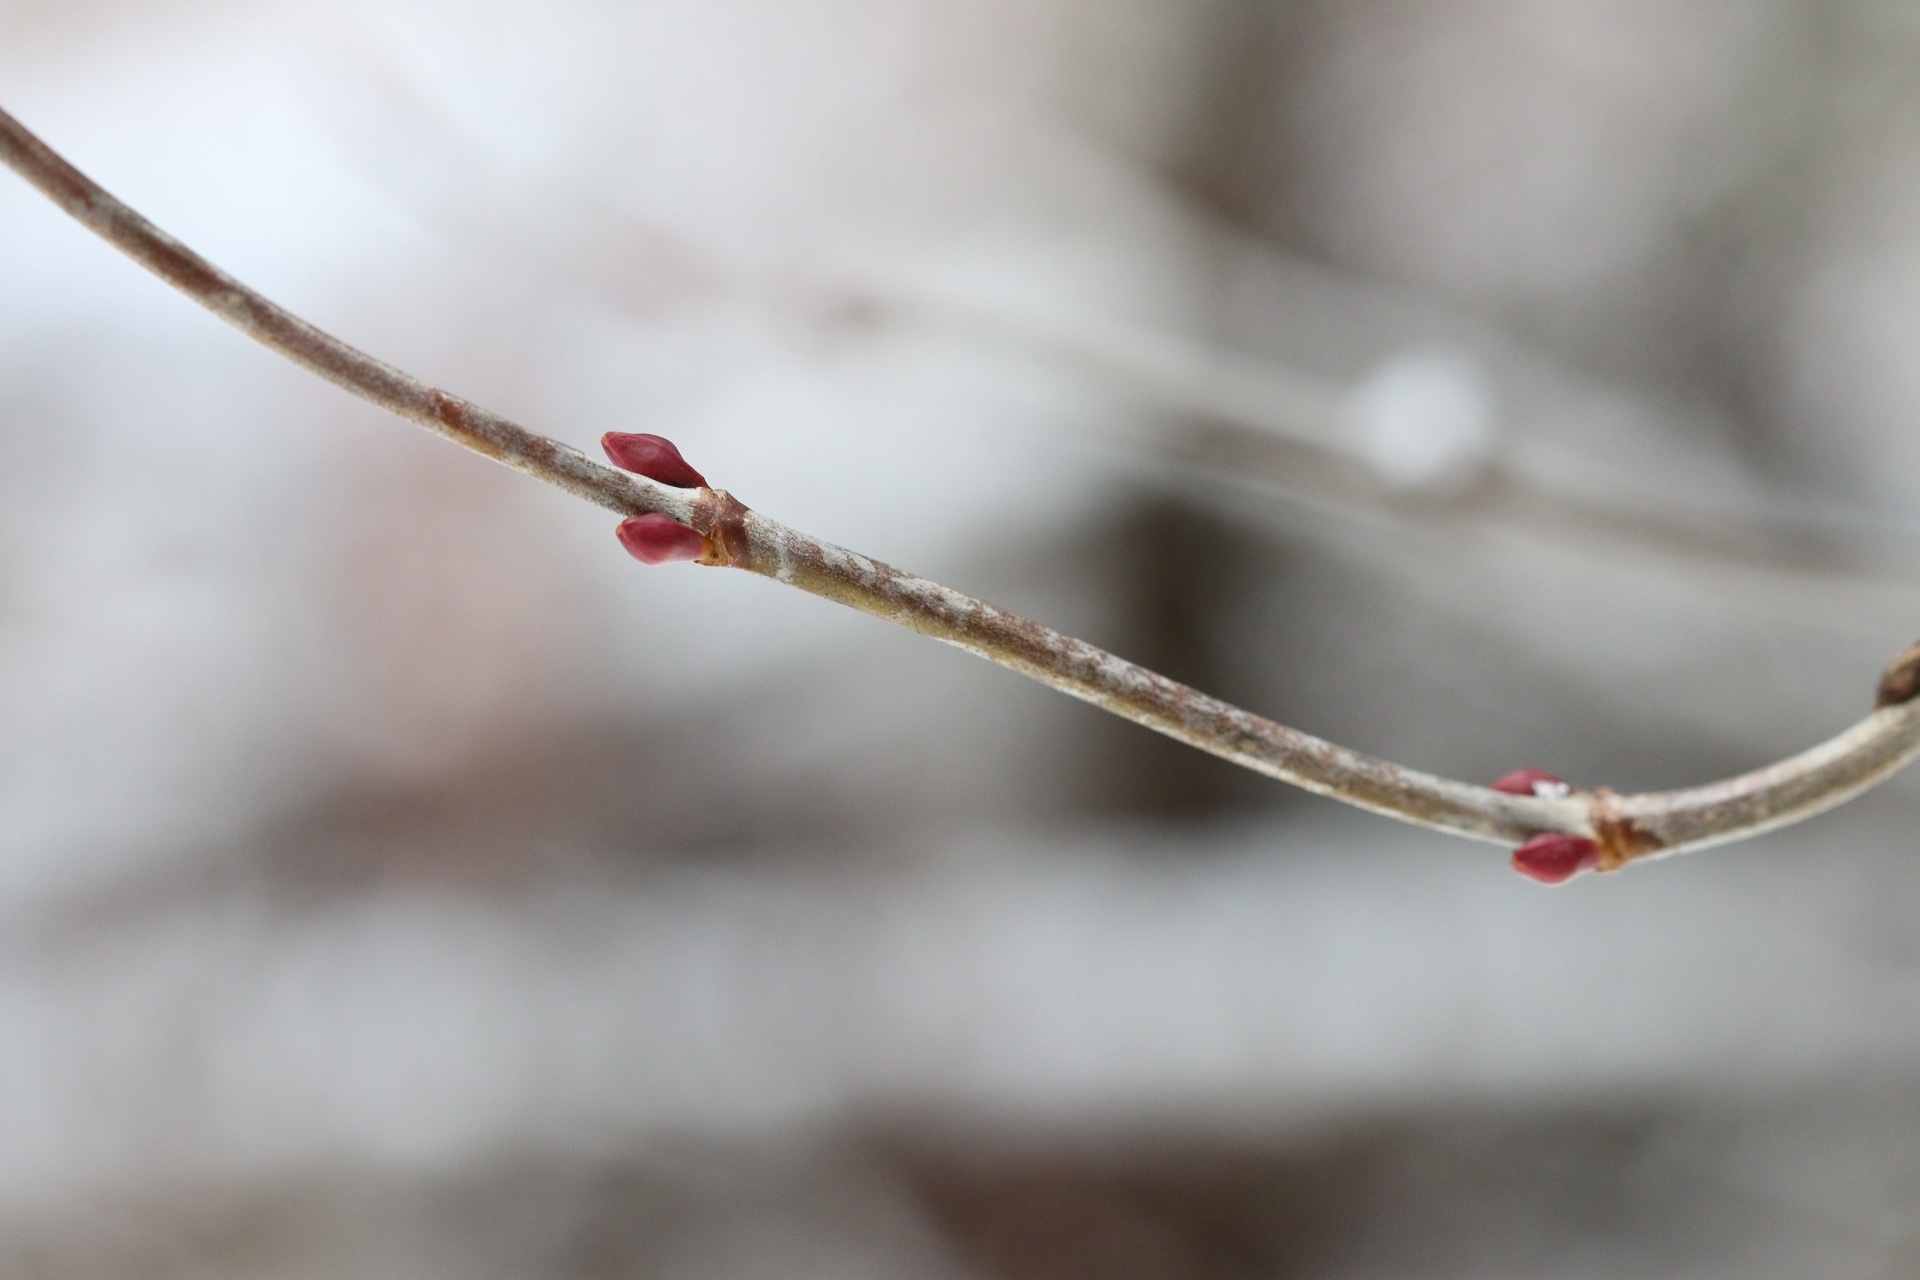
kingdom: Plantae
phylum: Tracheophyta
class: Magnoliopsida
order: Dipsacales
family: Viburnaceae
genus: Viburnum
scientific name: Viburnum edule
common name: Mooseberry
